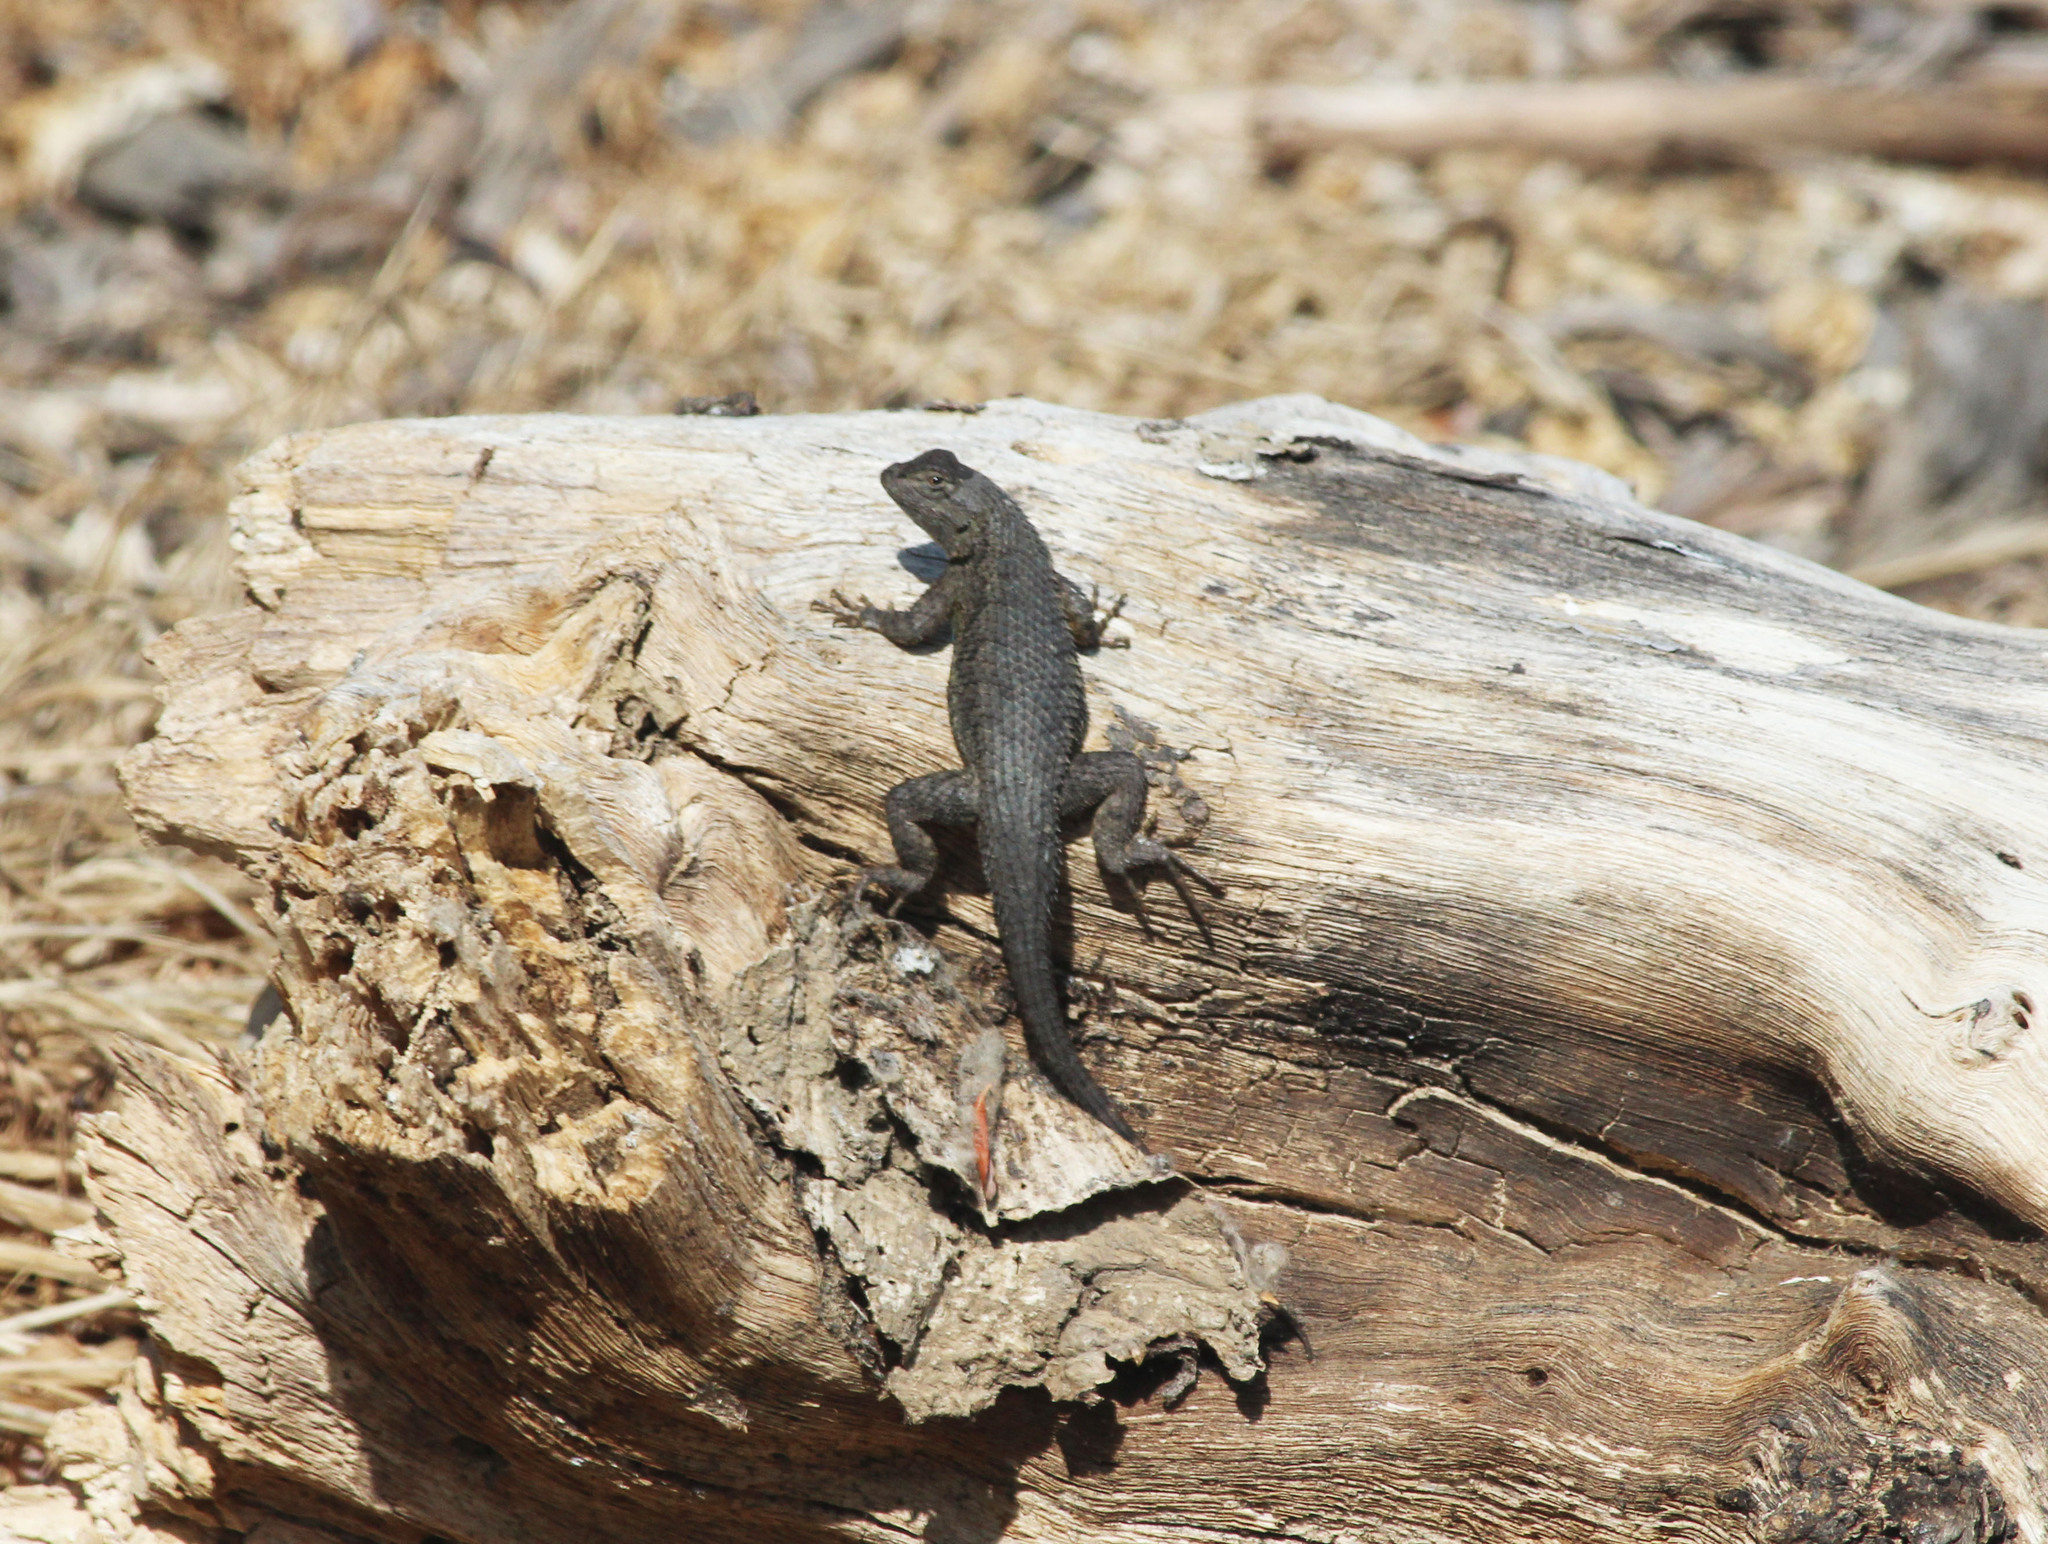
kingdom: Animalia
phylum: Chordata
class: Squamata
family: Phrynosomatidae
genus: Sceloporus
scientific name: Sceloporus occidentalis
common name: Western fence lizard
